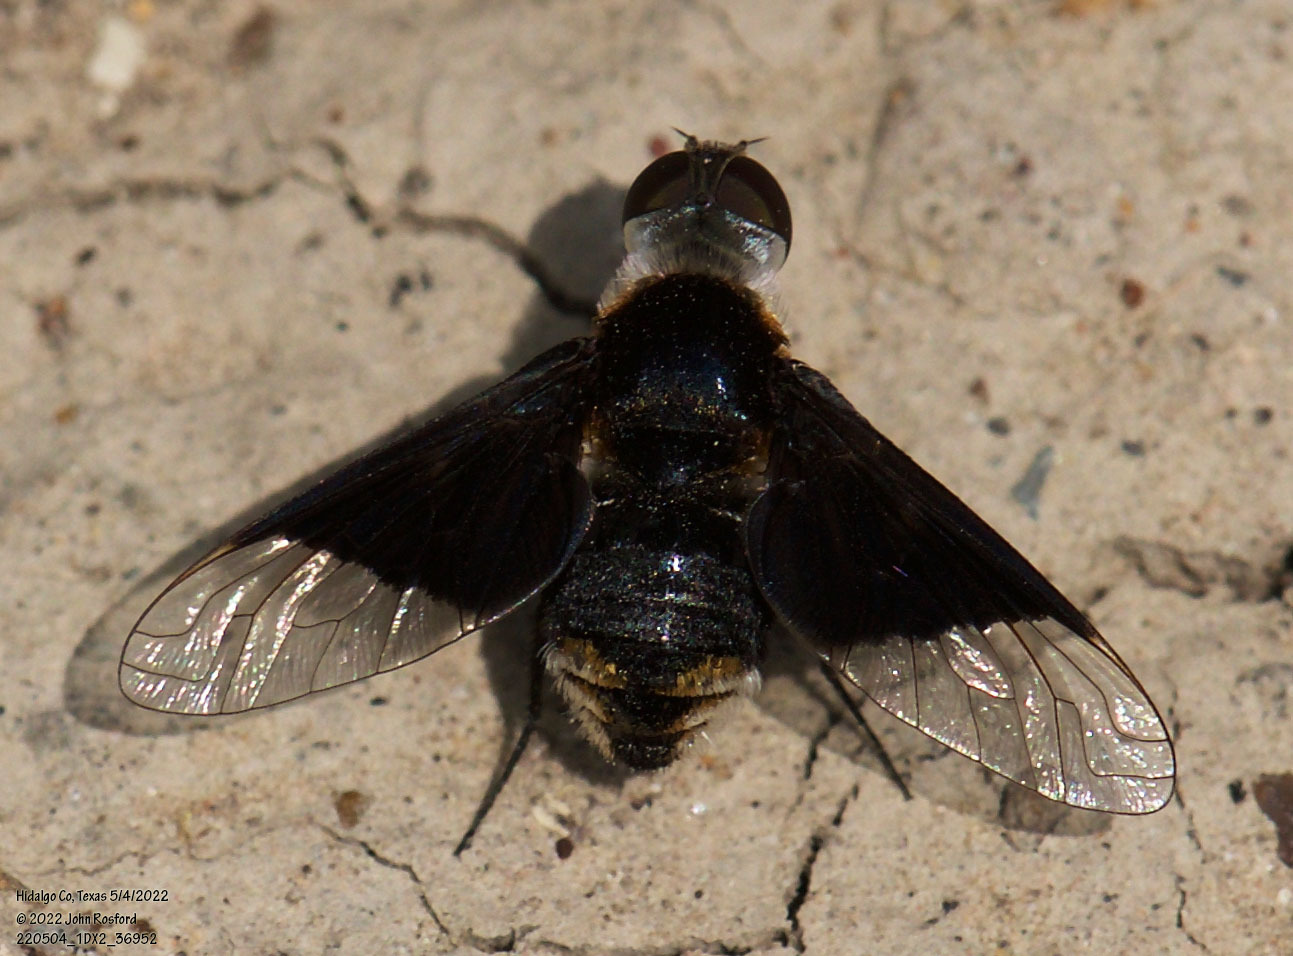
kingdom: Animalia
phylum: Arthropoda
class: Insecta
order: Diptera
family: Bombyliidae
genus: Ins
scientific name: Ins celeris
